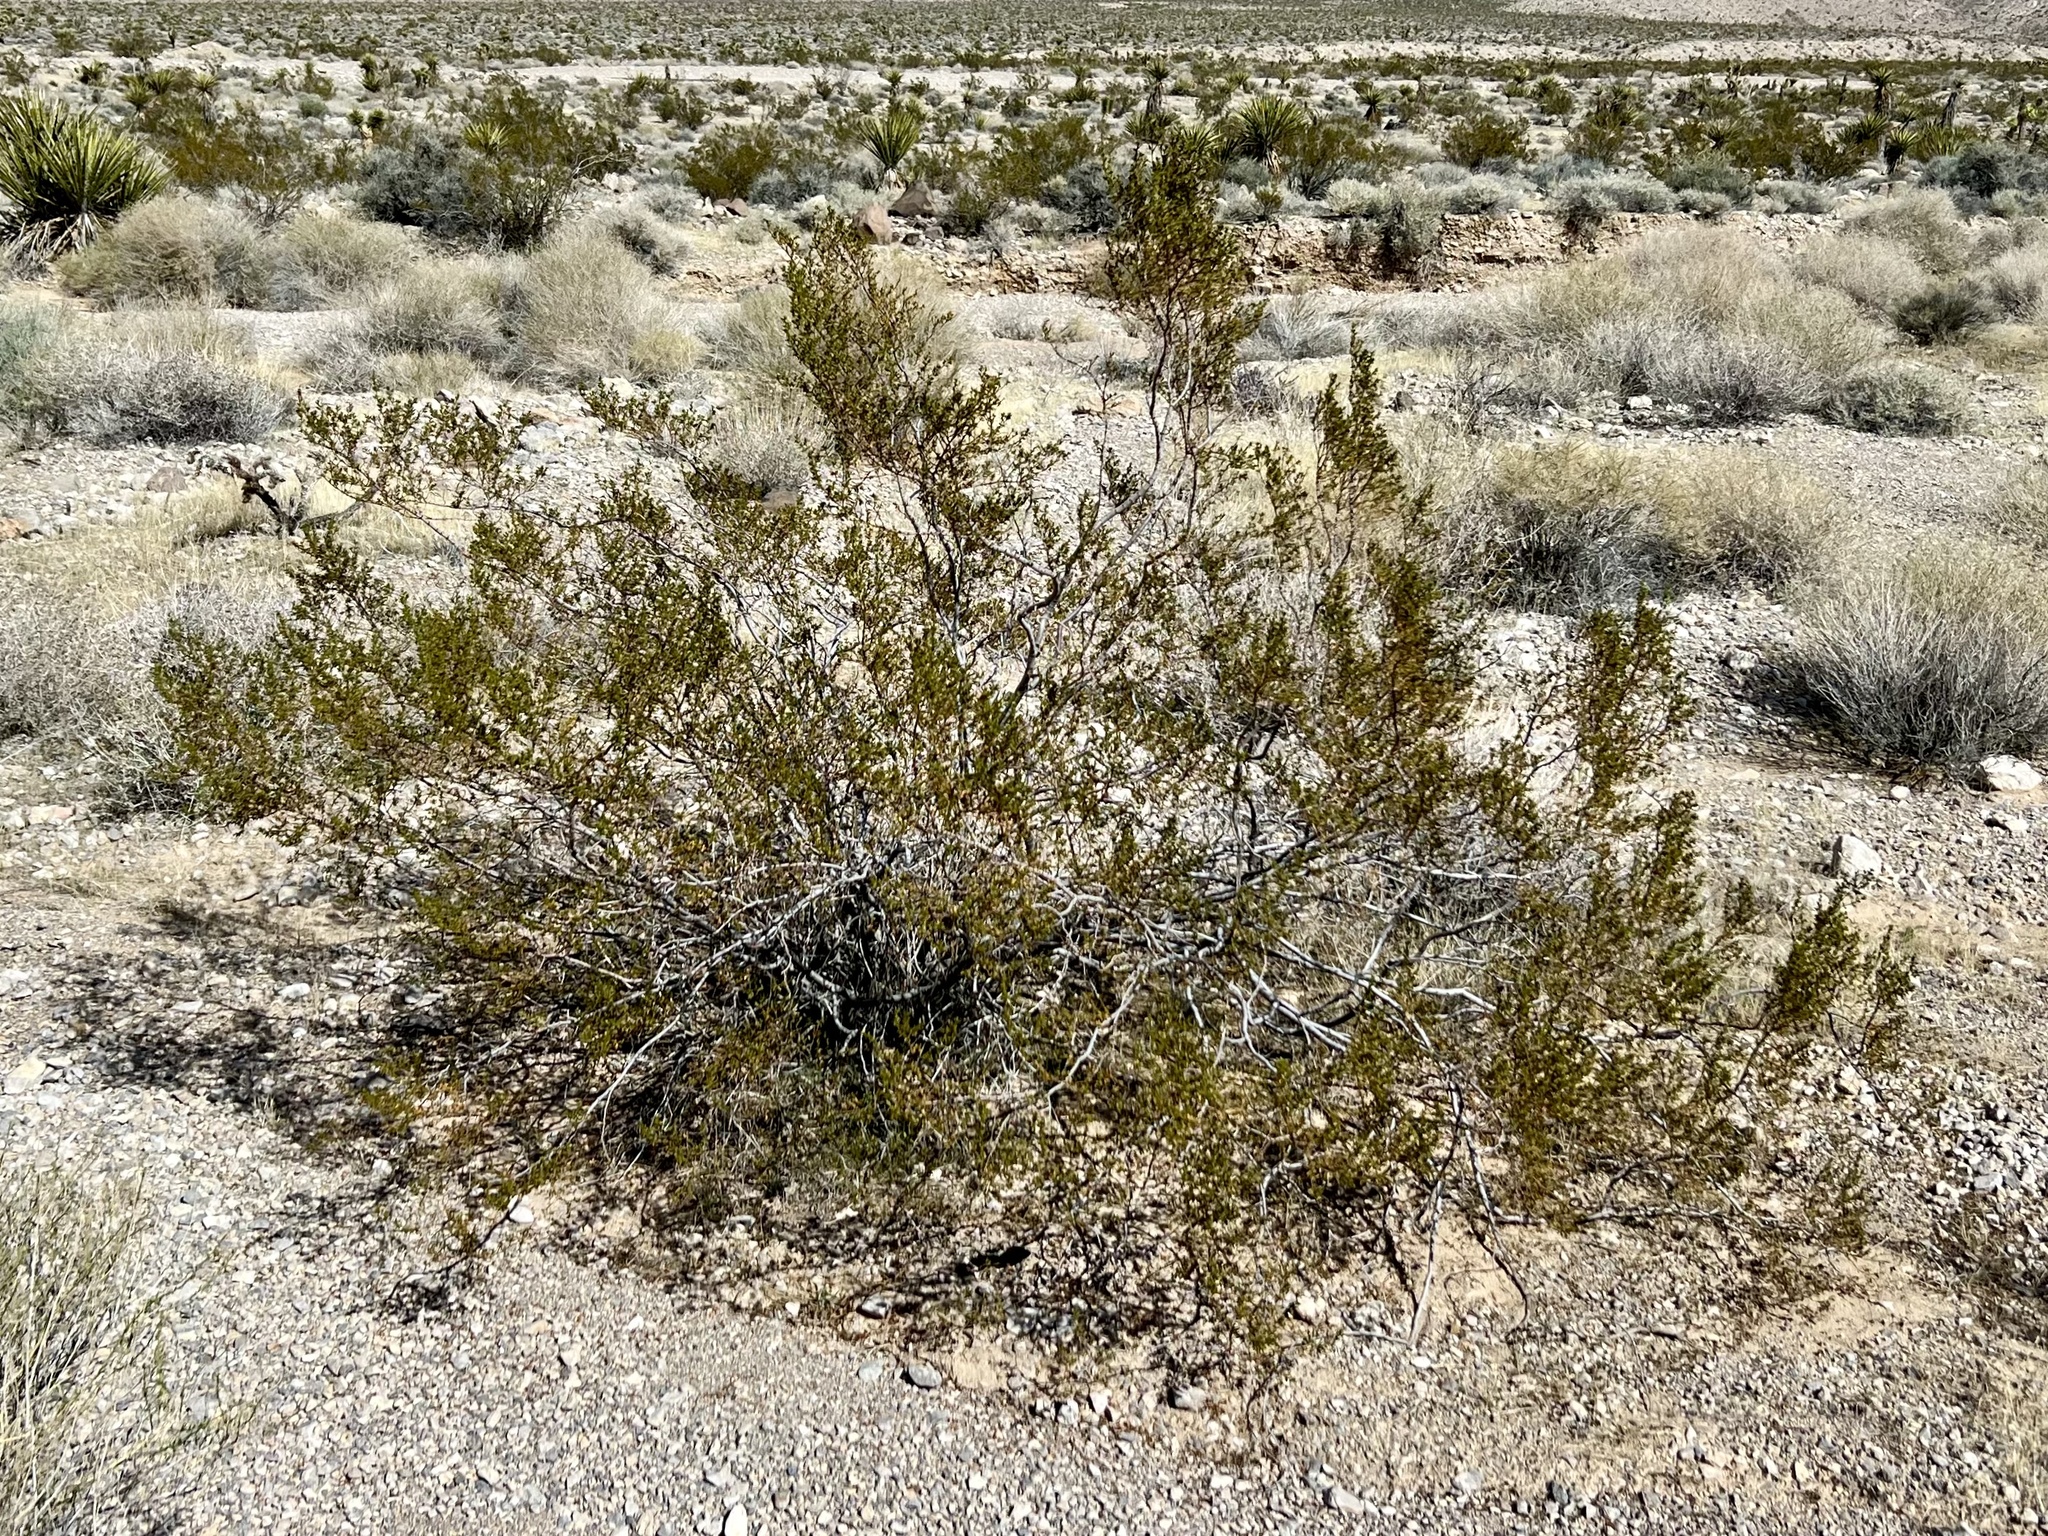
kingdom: Plantae
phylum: Tracheophyta
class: Magnoliopsida
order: Zygophyllales
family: Zygophyllaceae
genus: Larrea
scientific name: Larrea tridentata
